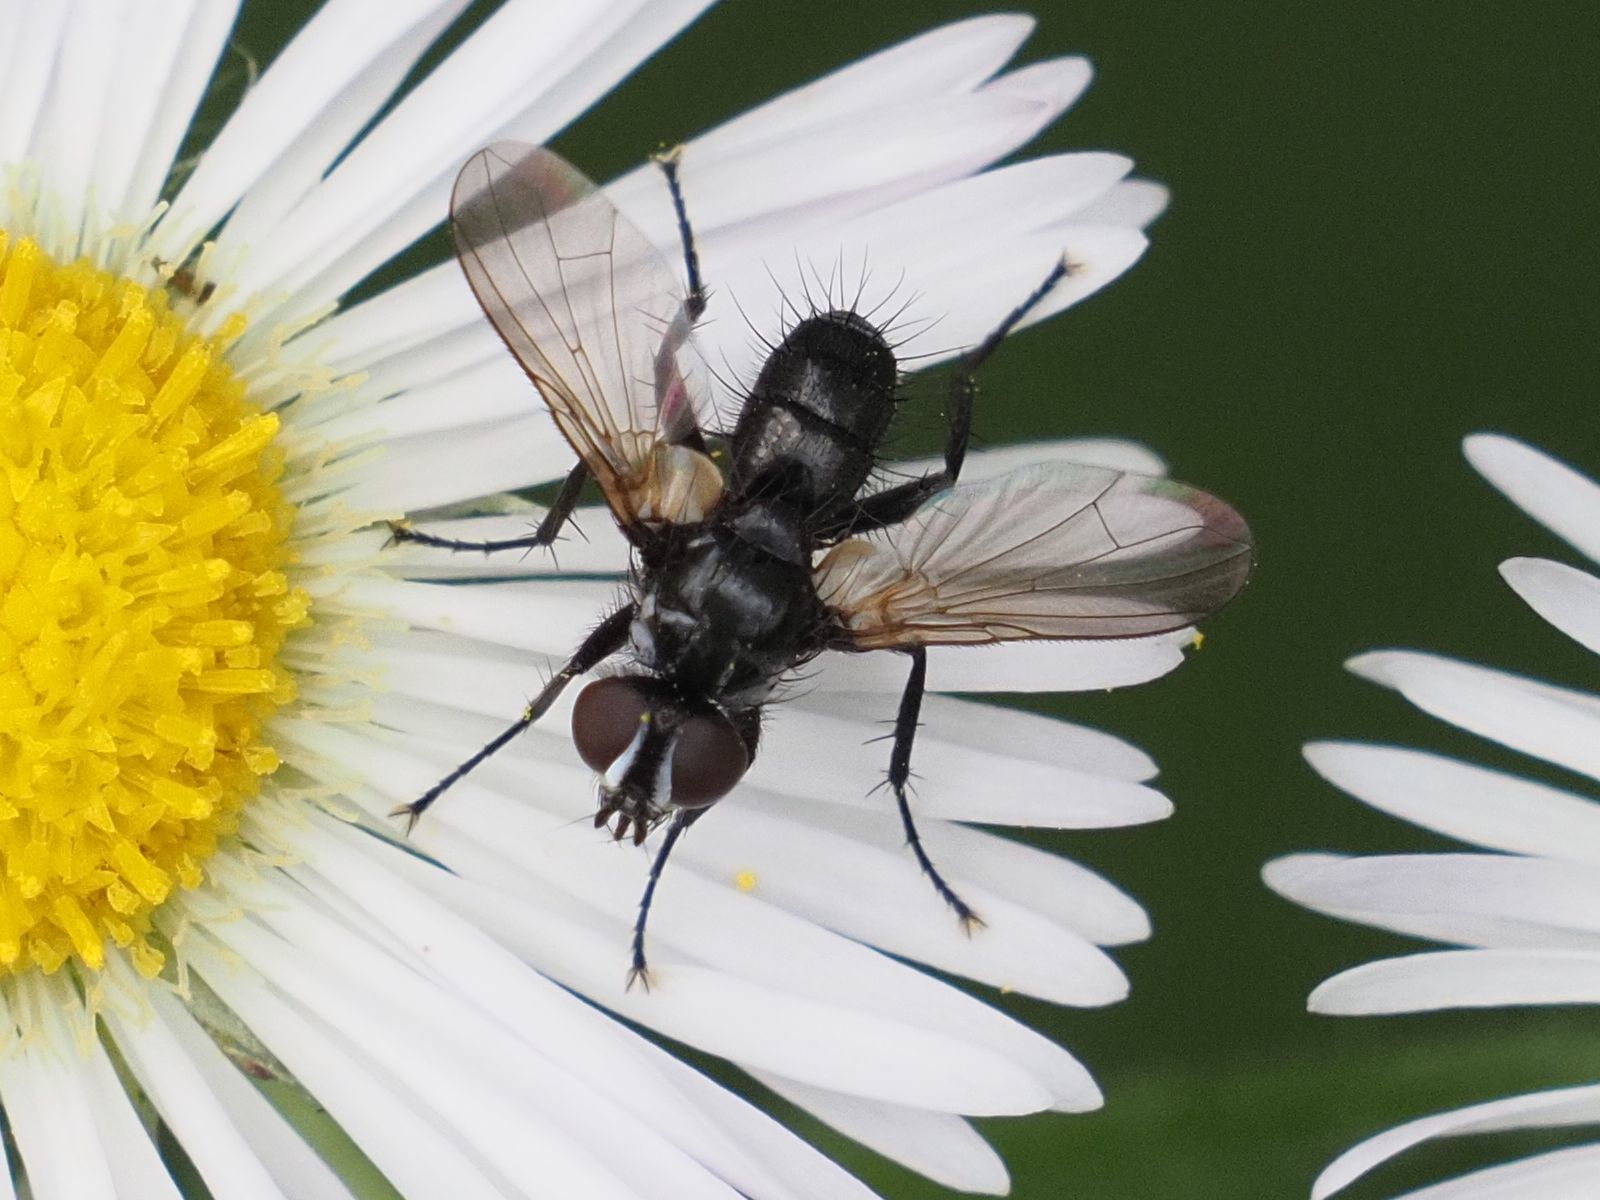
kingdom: Animalia
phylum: Arthropoda
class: Insecta
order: Diptera
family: Tachinidae
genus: Phania
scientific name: Phania funesta
